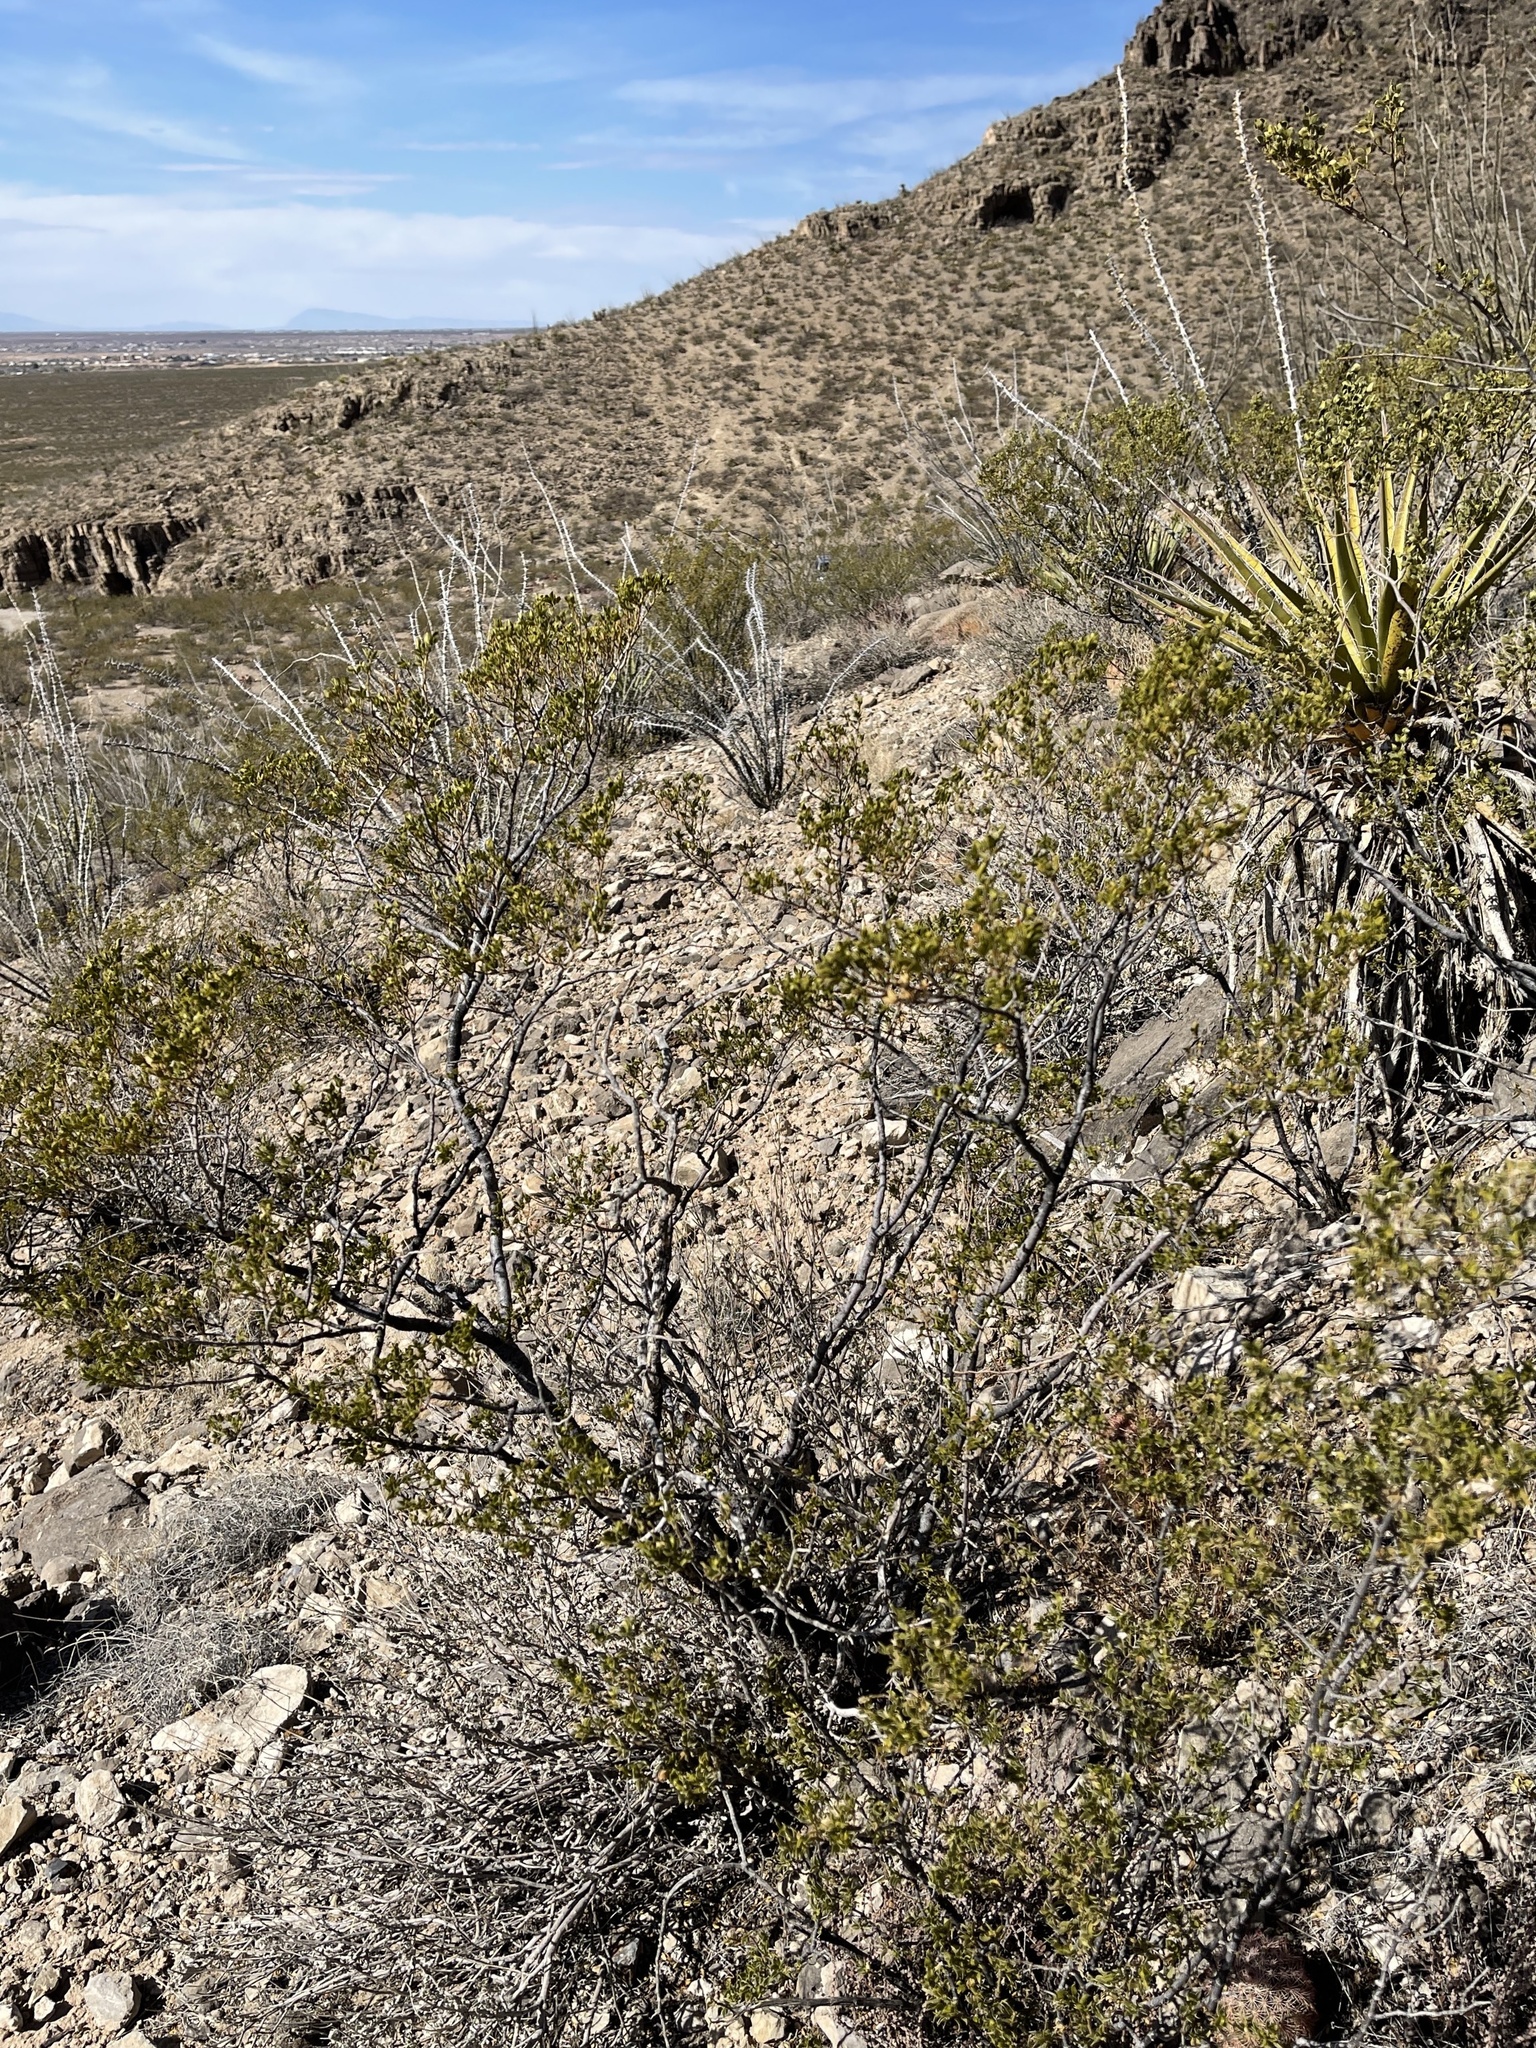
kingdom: Plantae
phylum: Tracheophyta
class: Magnoliopsida
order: Zygophyllales
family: Zygophyllaceae
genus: Larrea
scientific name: Larrea tridentata
